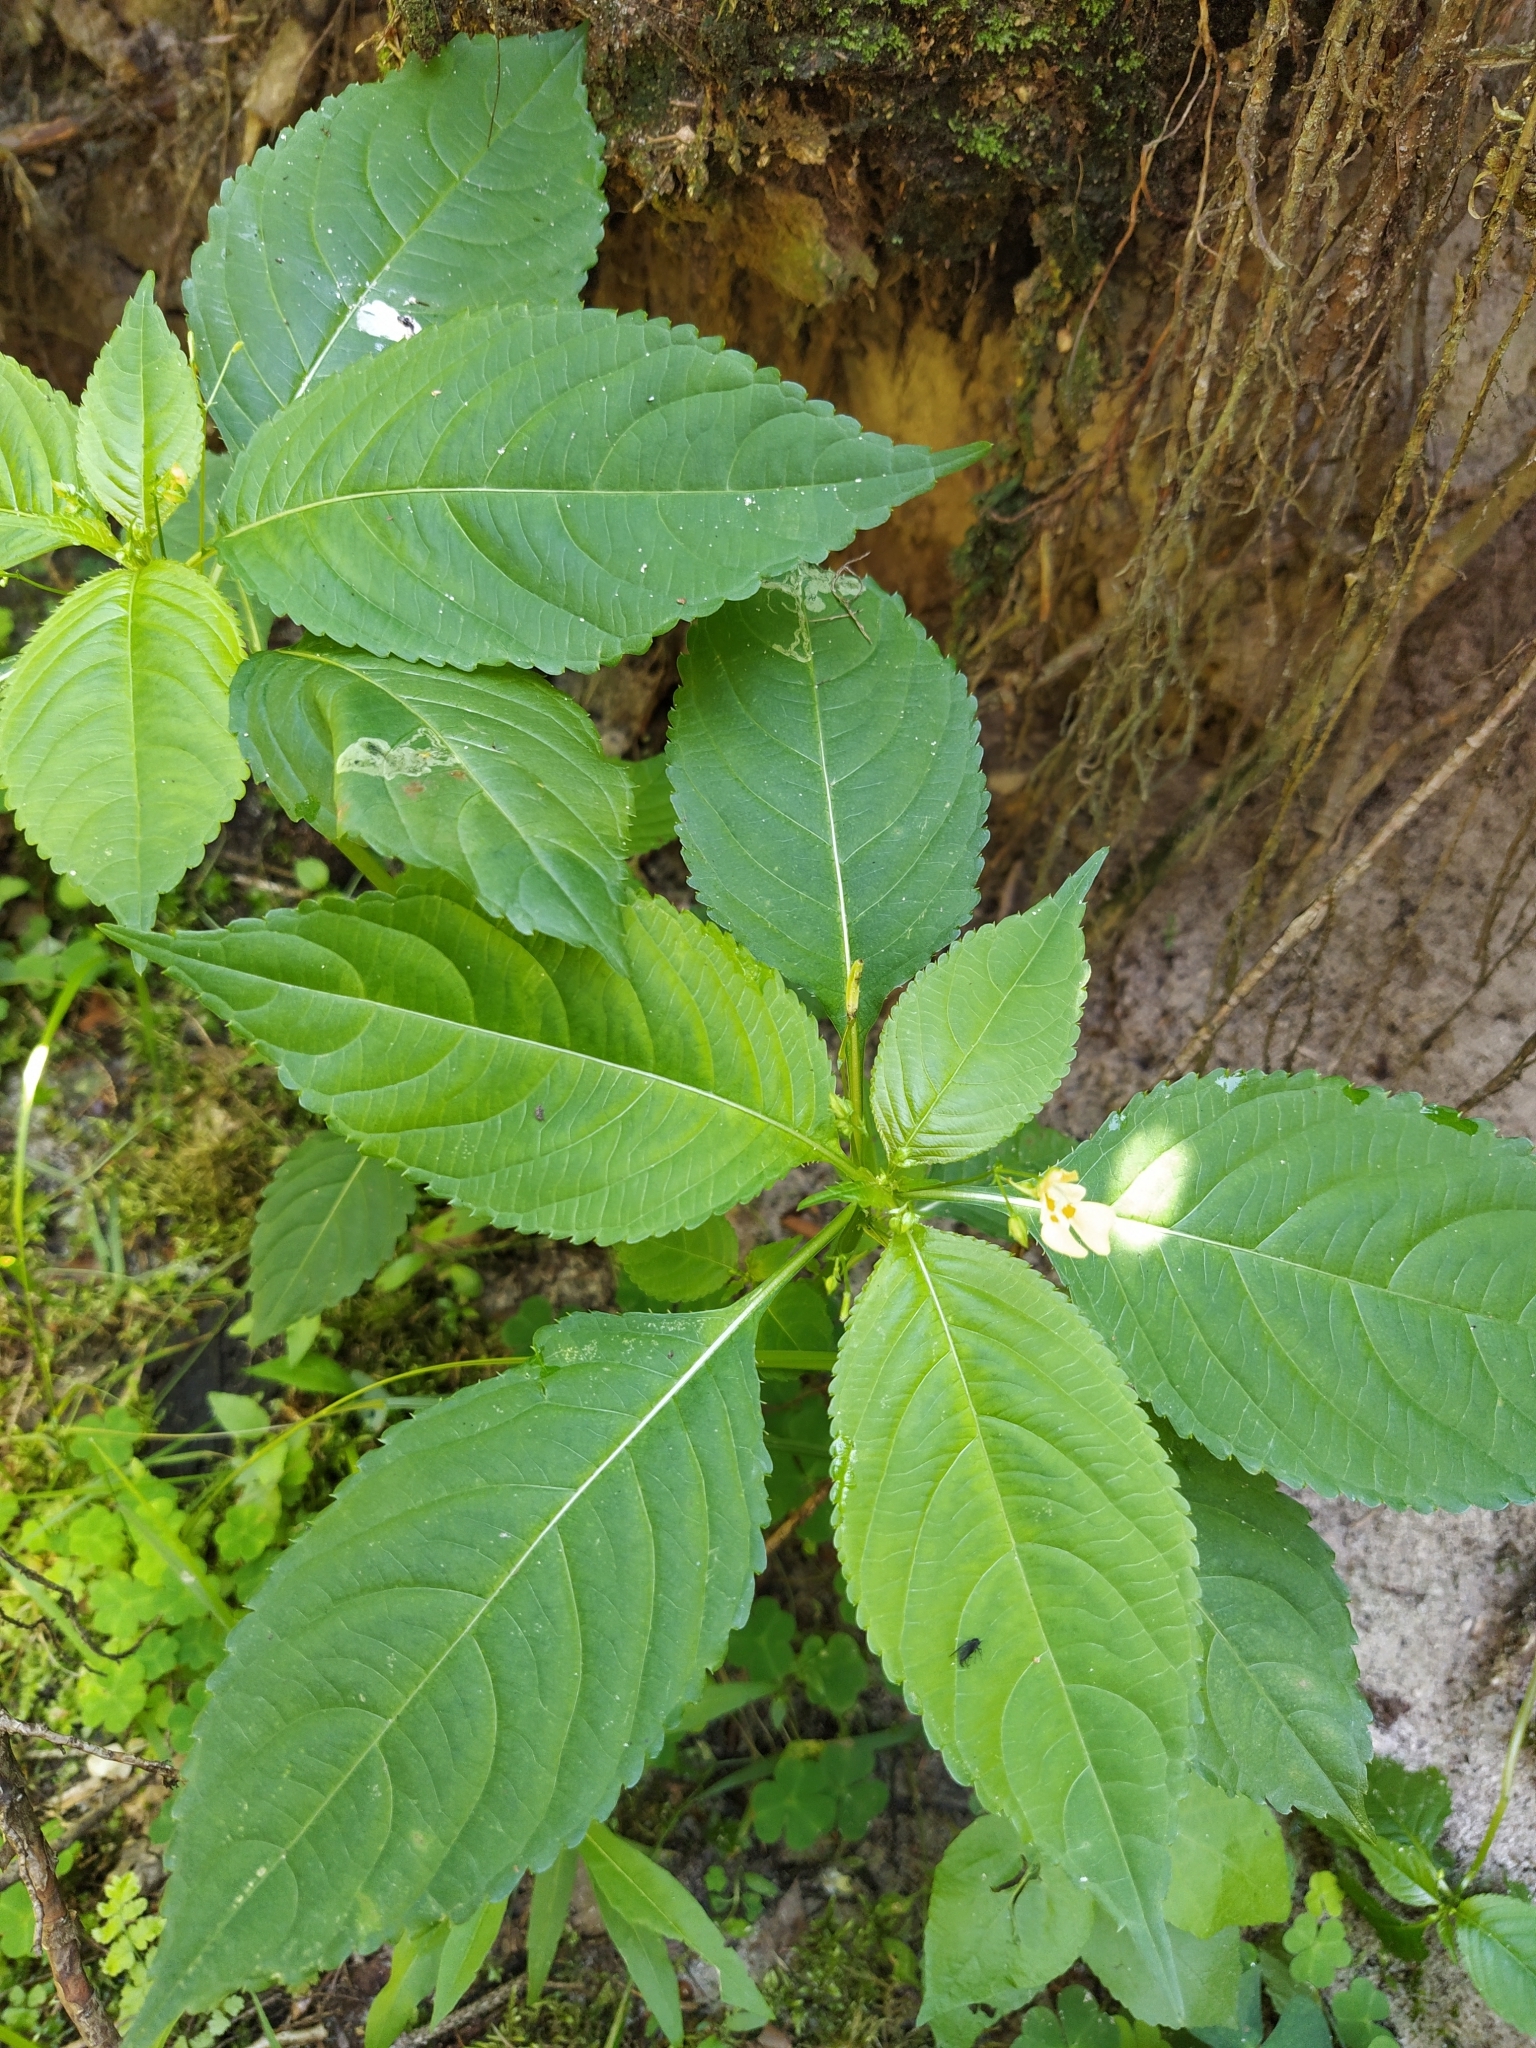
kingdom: Plantae
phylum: Tracheophyta
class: Magnoliopsida
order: Ericales
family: Balsaminaceae
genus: Impatiens
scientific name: Impatiens parviflora
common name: Small balsam
